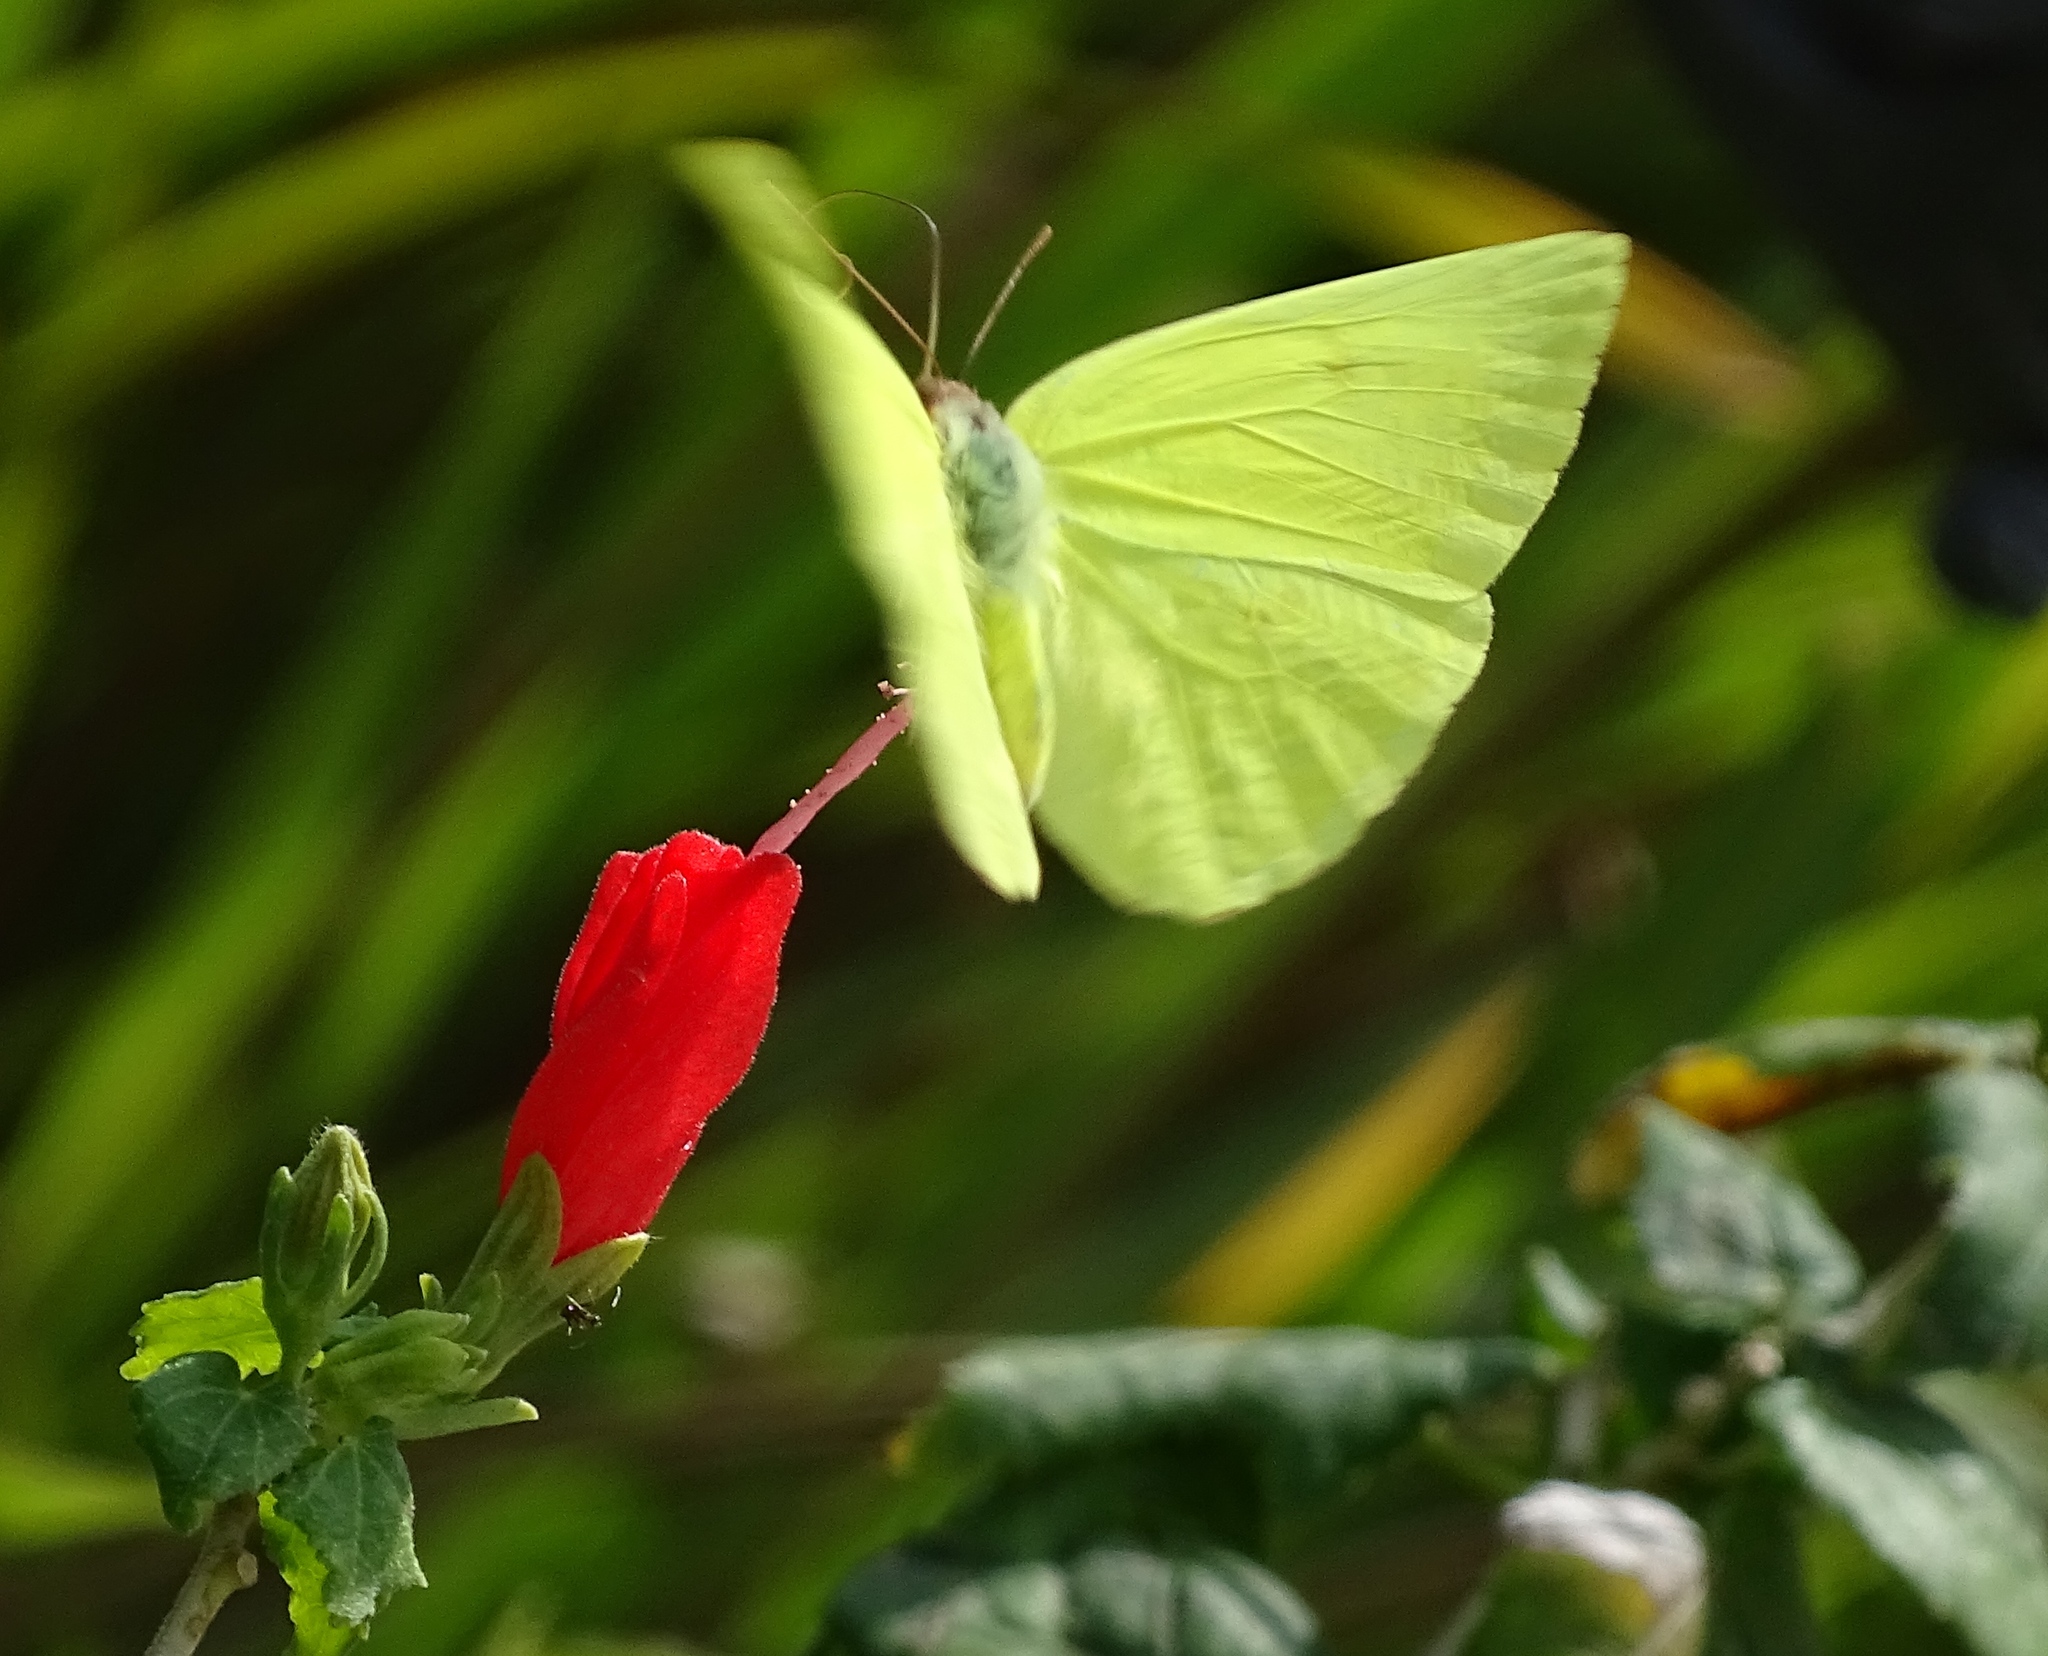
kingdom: Animalia
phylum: Arthropoda
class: Insecta
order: Lepidoptera
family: Pieridae
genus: Aphrissa
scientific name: Aphrissa statira
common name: Statira sulphur
